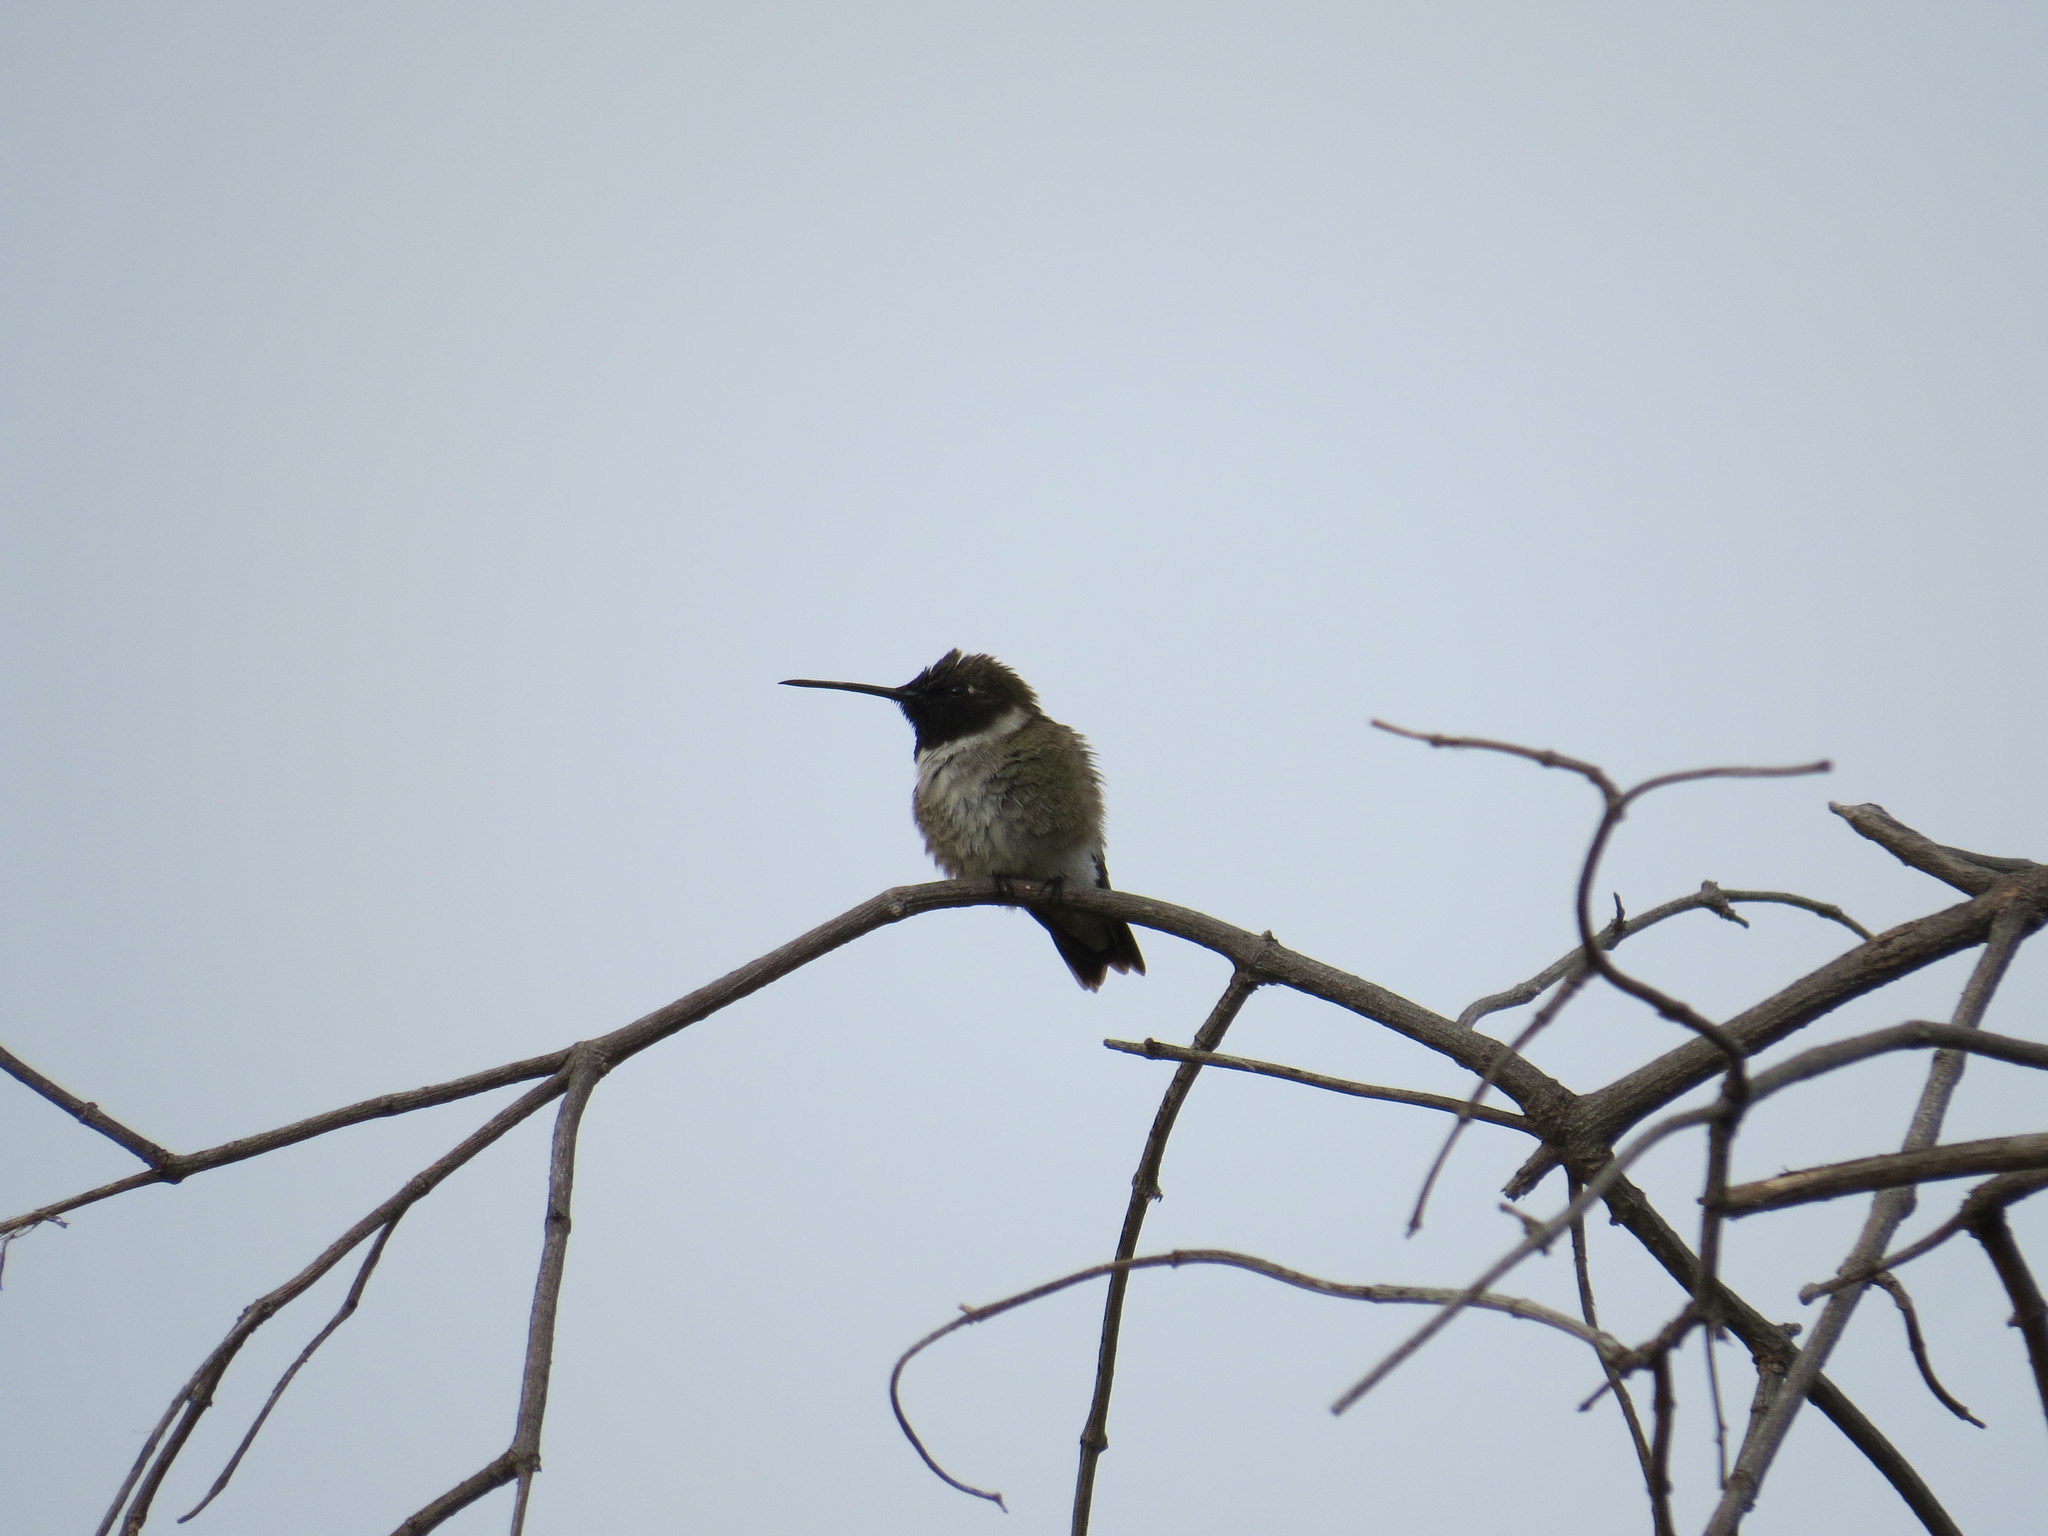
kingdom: Animalia
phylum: Chordata
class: Aves
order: Apodiformes
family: Trochilidae
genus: Archilochus
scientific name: Archilochus alexandri
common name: Black-chinned hummingbird
